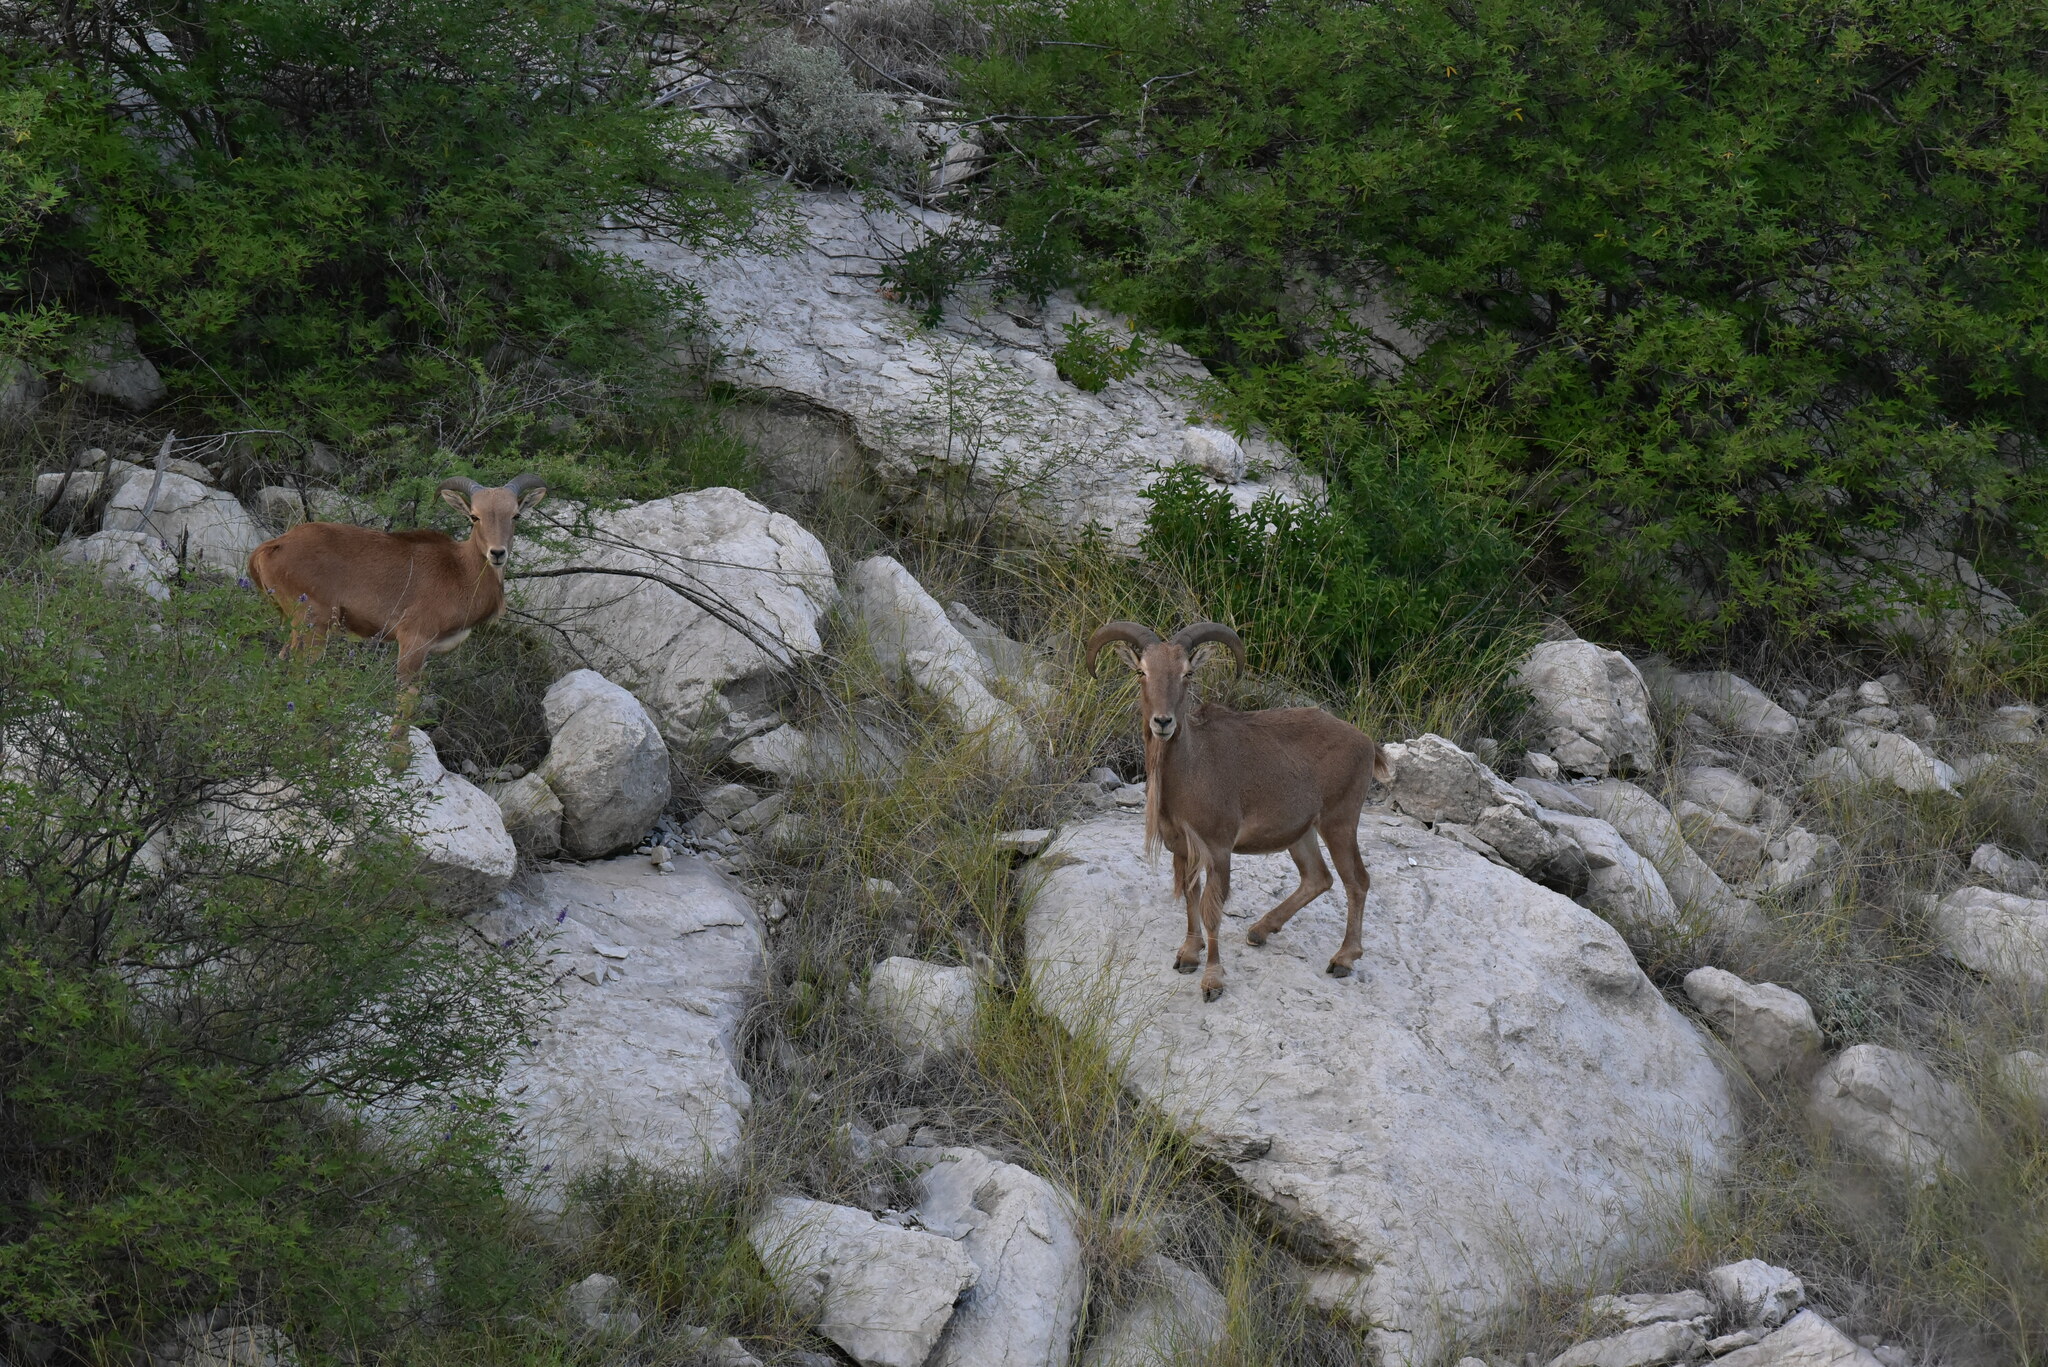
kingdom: Animalia
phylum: Chordata
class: Mammalia
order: Artiodactyla
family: Bovidae
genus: Ammotragus
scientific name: Ammotragus lervia
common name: Barbary sheep
